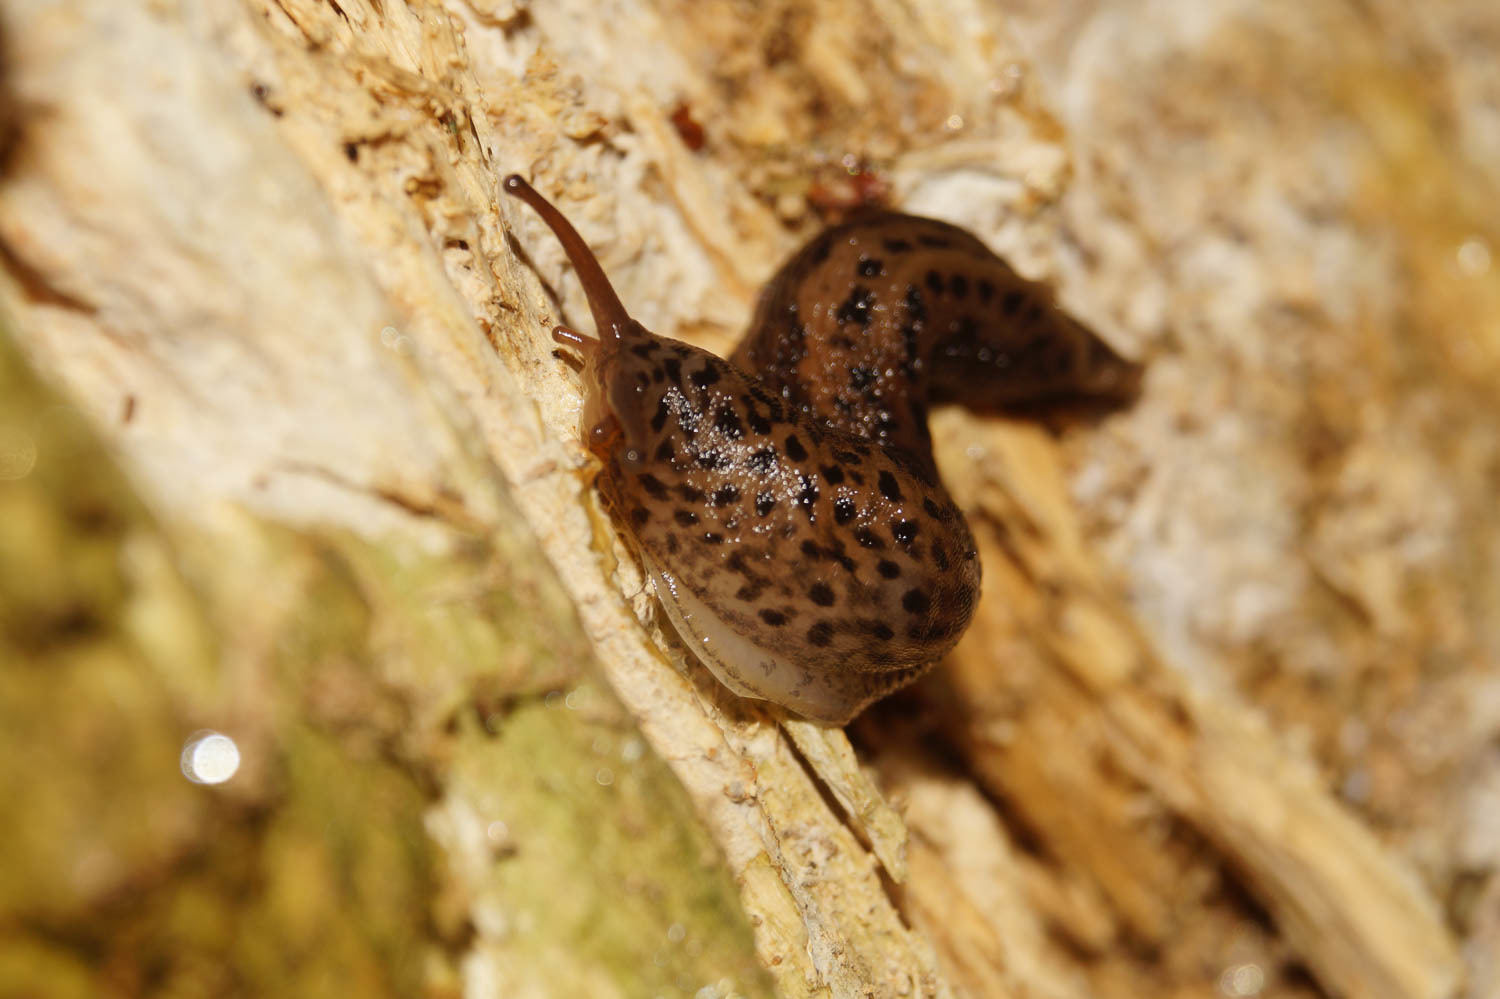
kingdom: Animalia
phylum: Mollusca
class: Gastropoda
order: Stylommatophora
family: Limacidae
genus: Limax
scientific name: Limax maximus
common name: Great grey slug
